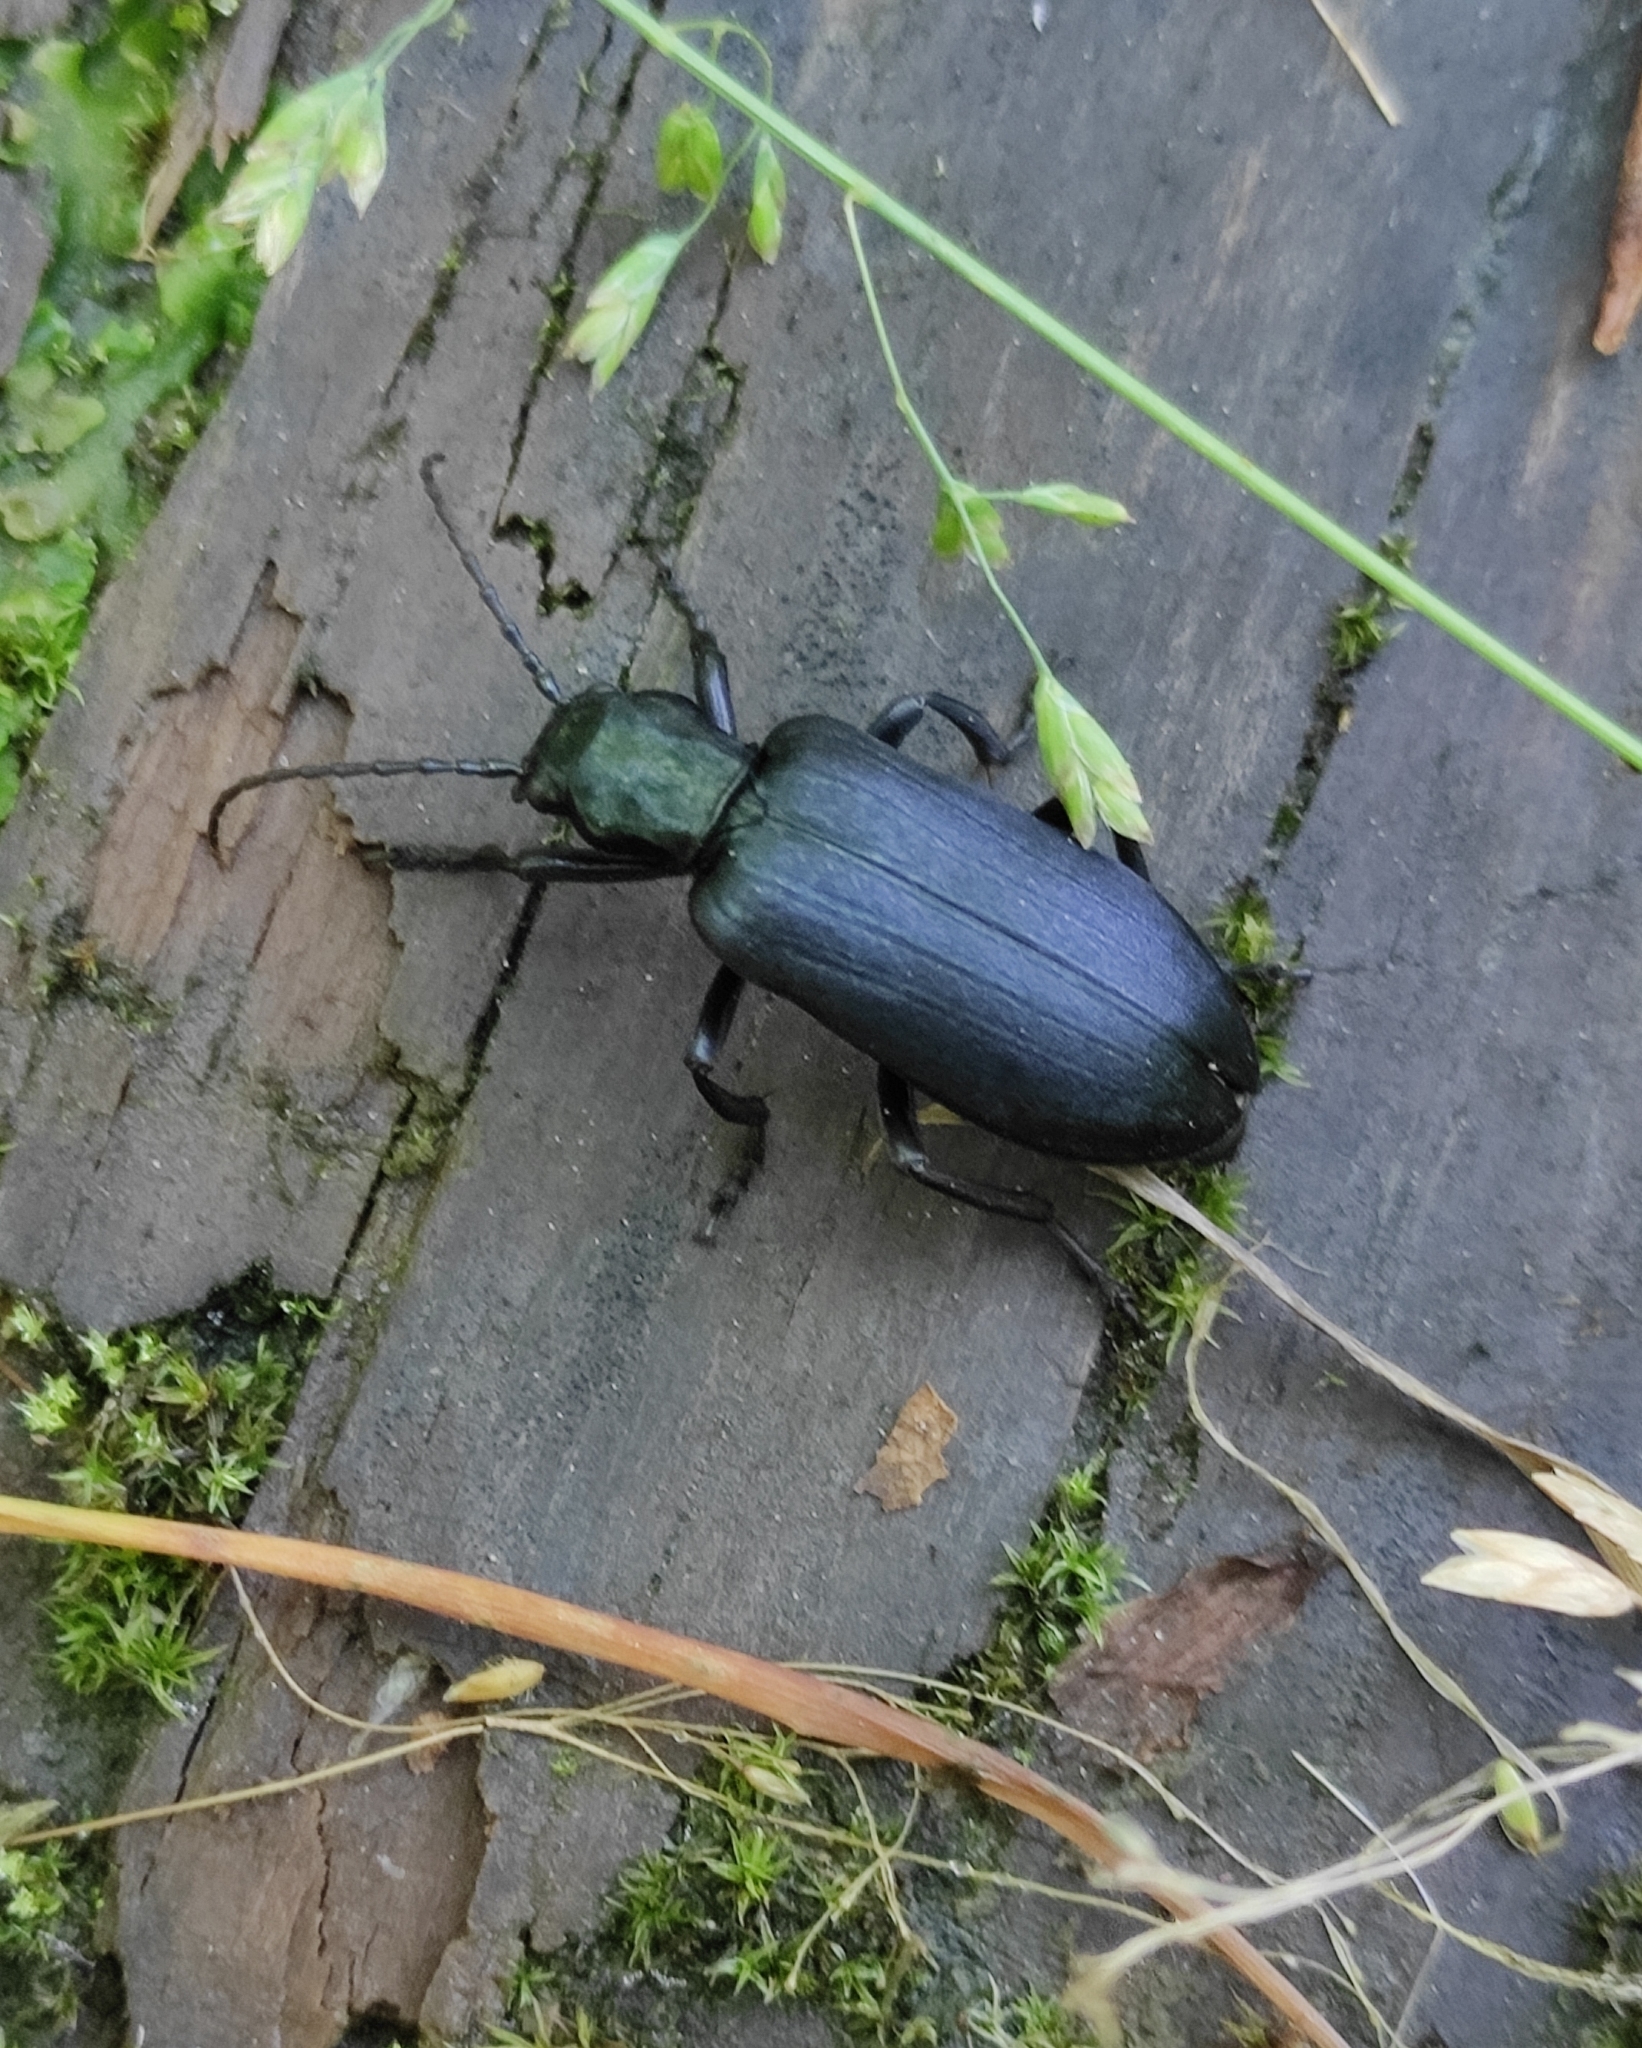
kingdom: Animalia
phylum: Arthropoda
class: Insecta
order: Coleoptera
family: Oedemeridae
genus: Ditylus
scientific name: Ditylus laevis
